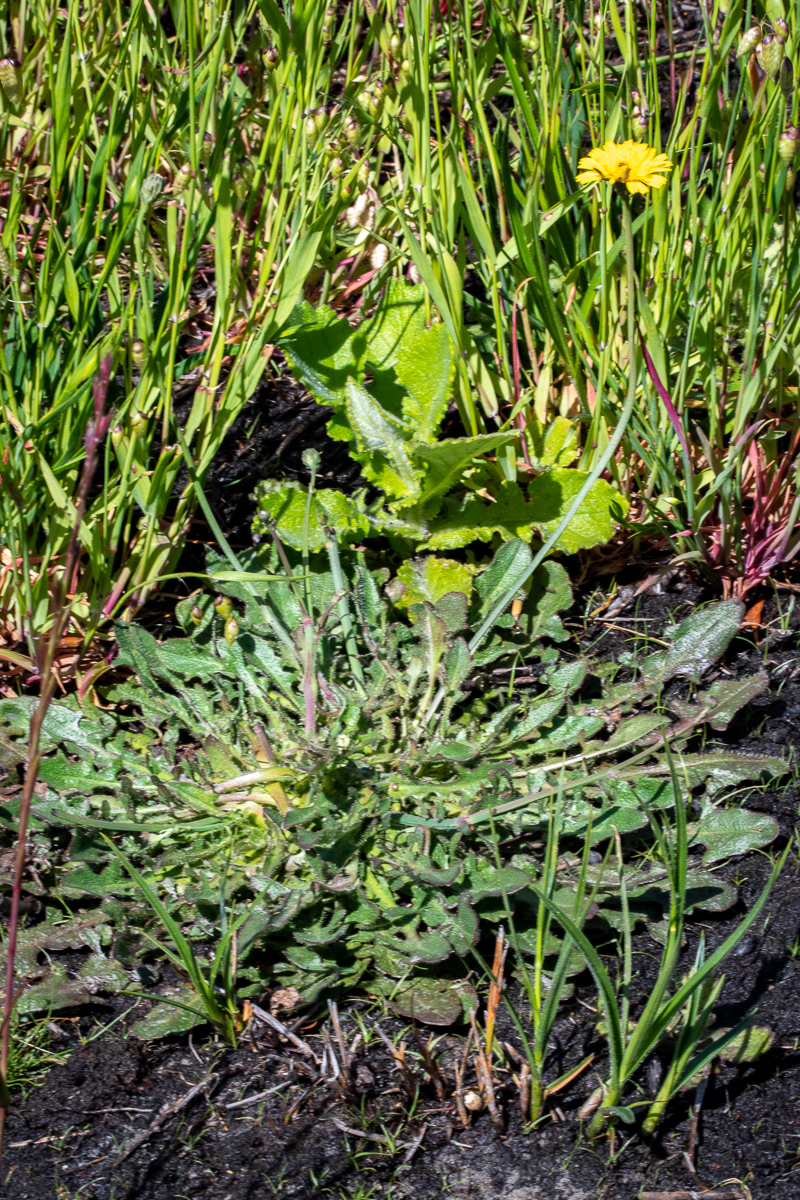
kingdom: Plantae
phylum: Tracheophyta
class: Magnoliopsida
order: Asterales
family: Asteraceae
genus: Hypochaeris
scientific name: Hypochaeris radicata
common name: Flatweed
